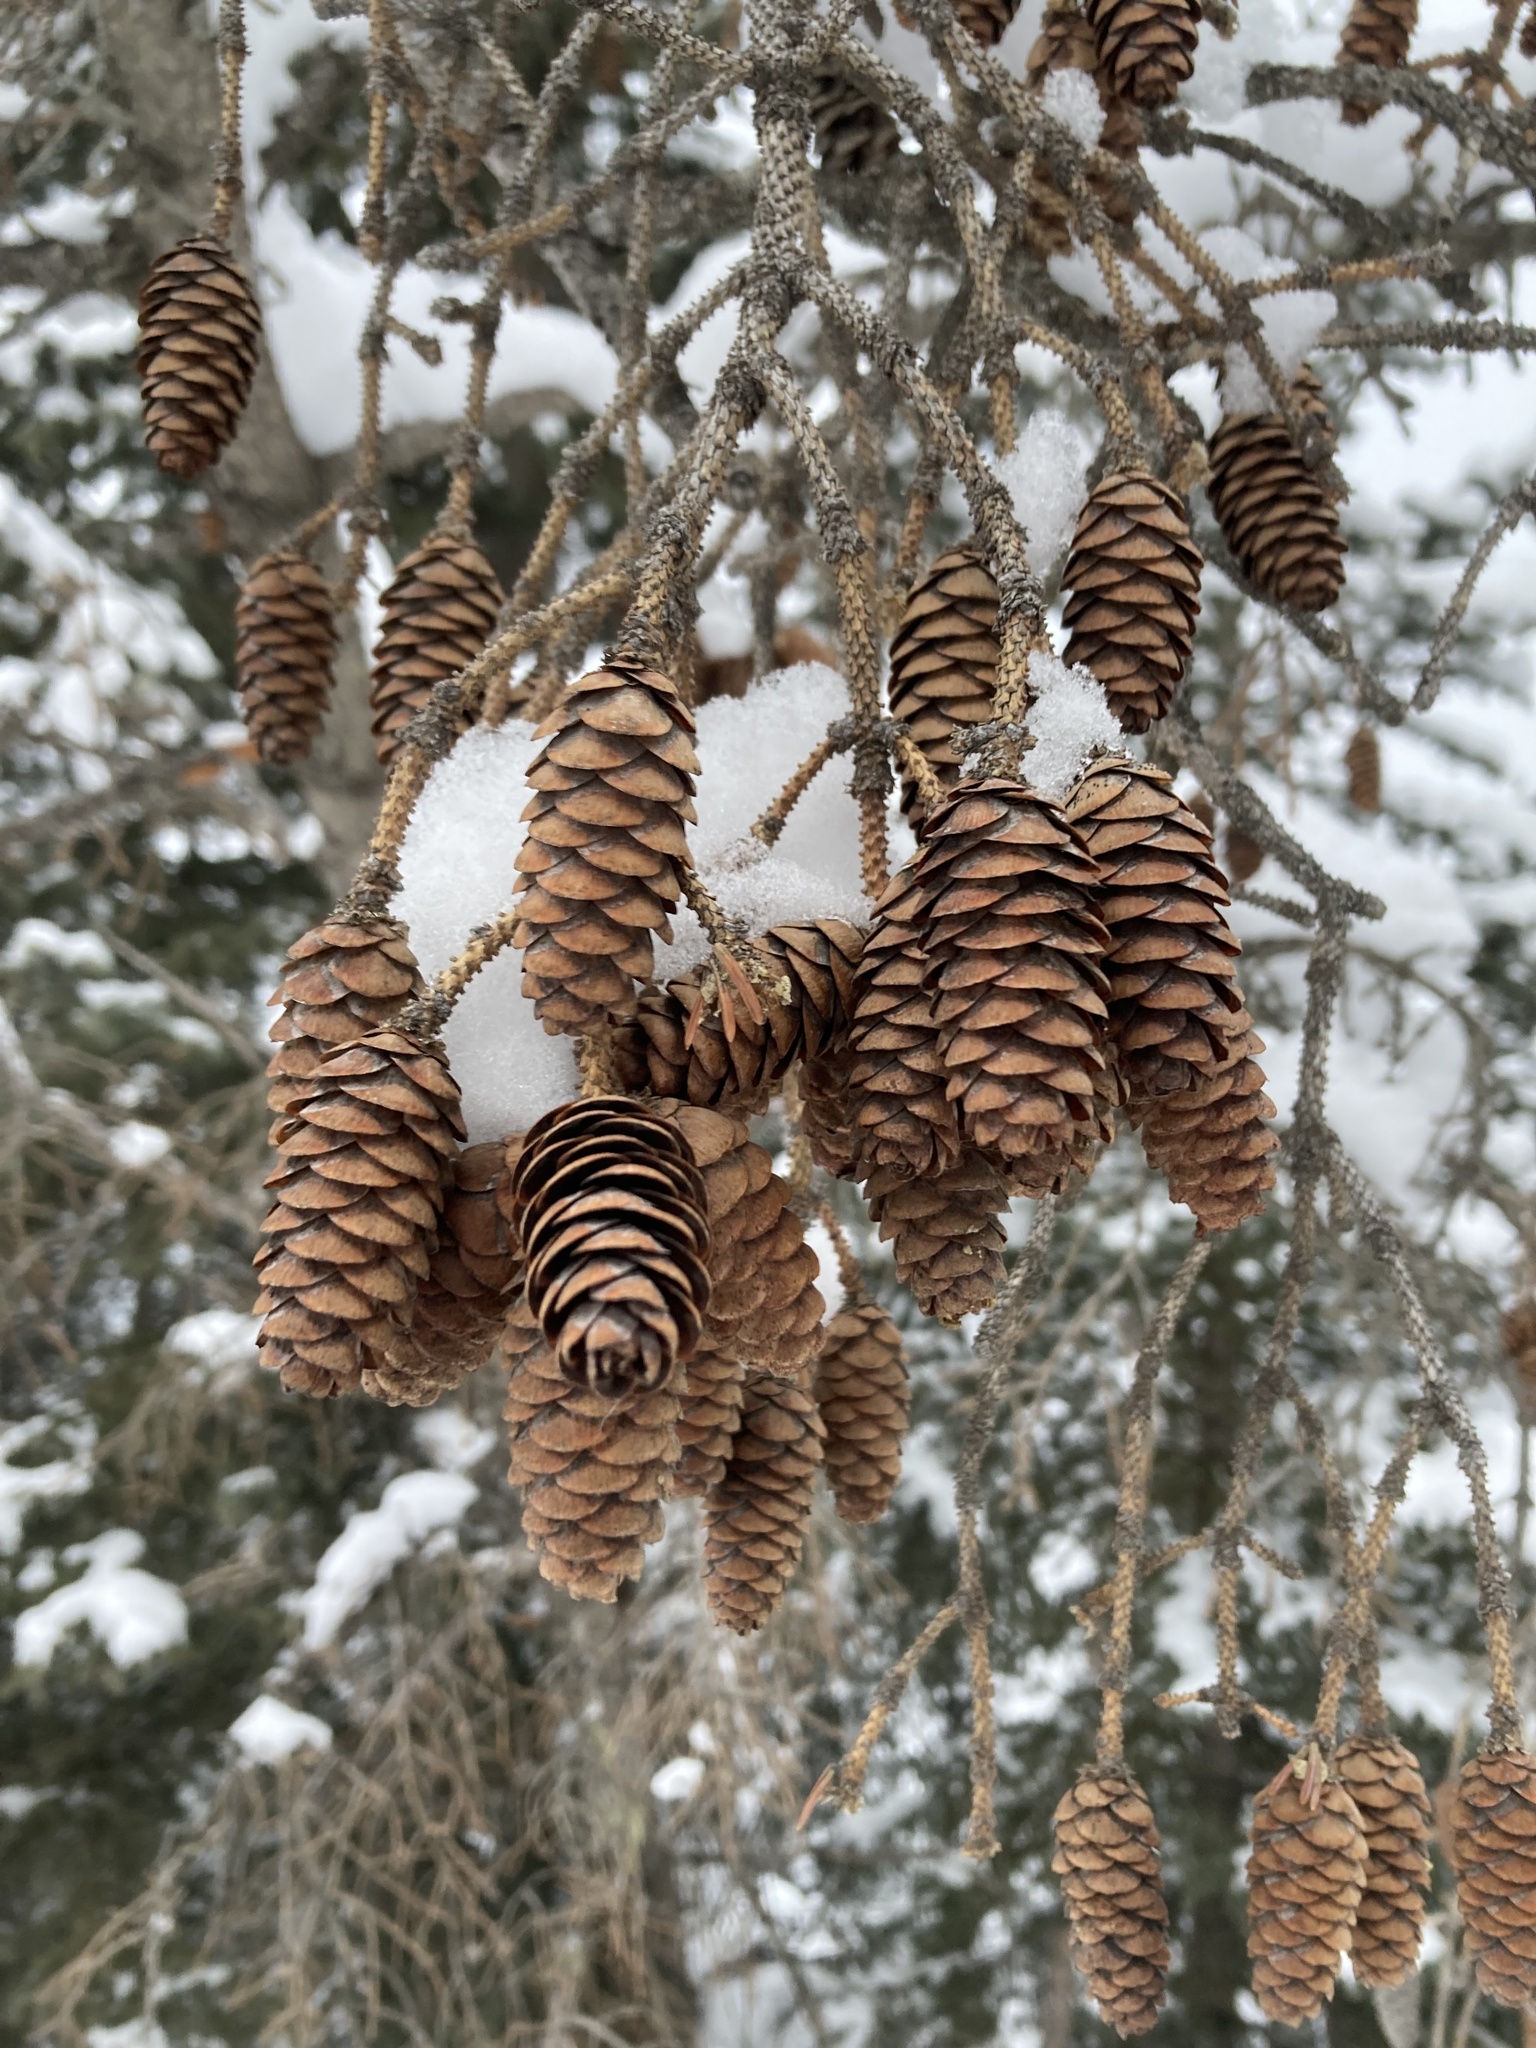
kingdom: Plantae
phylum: Tracheophyta
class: Pinopsida
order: Pinales
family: Pinaceae
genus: Picea
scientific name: Picea glauca
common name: White spruce
